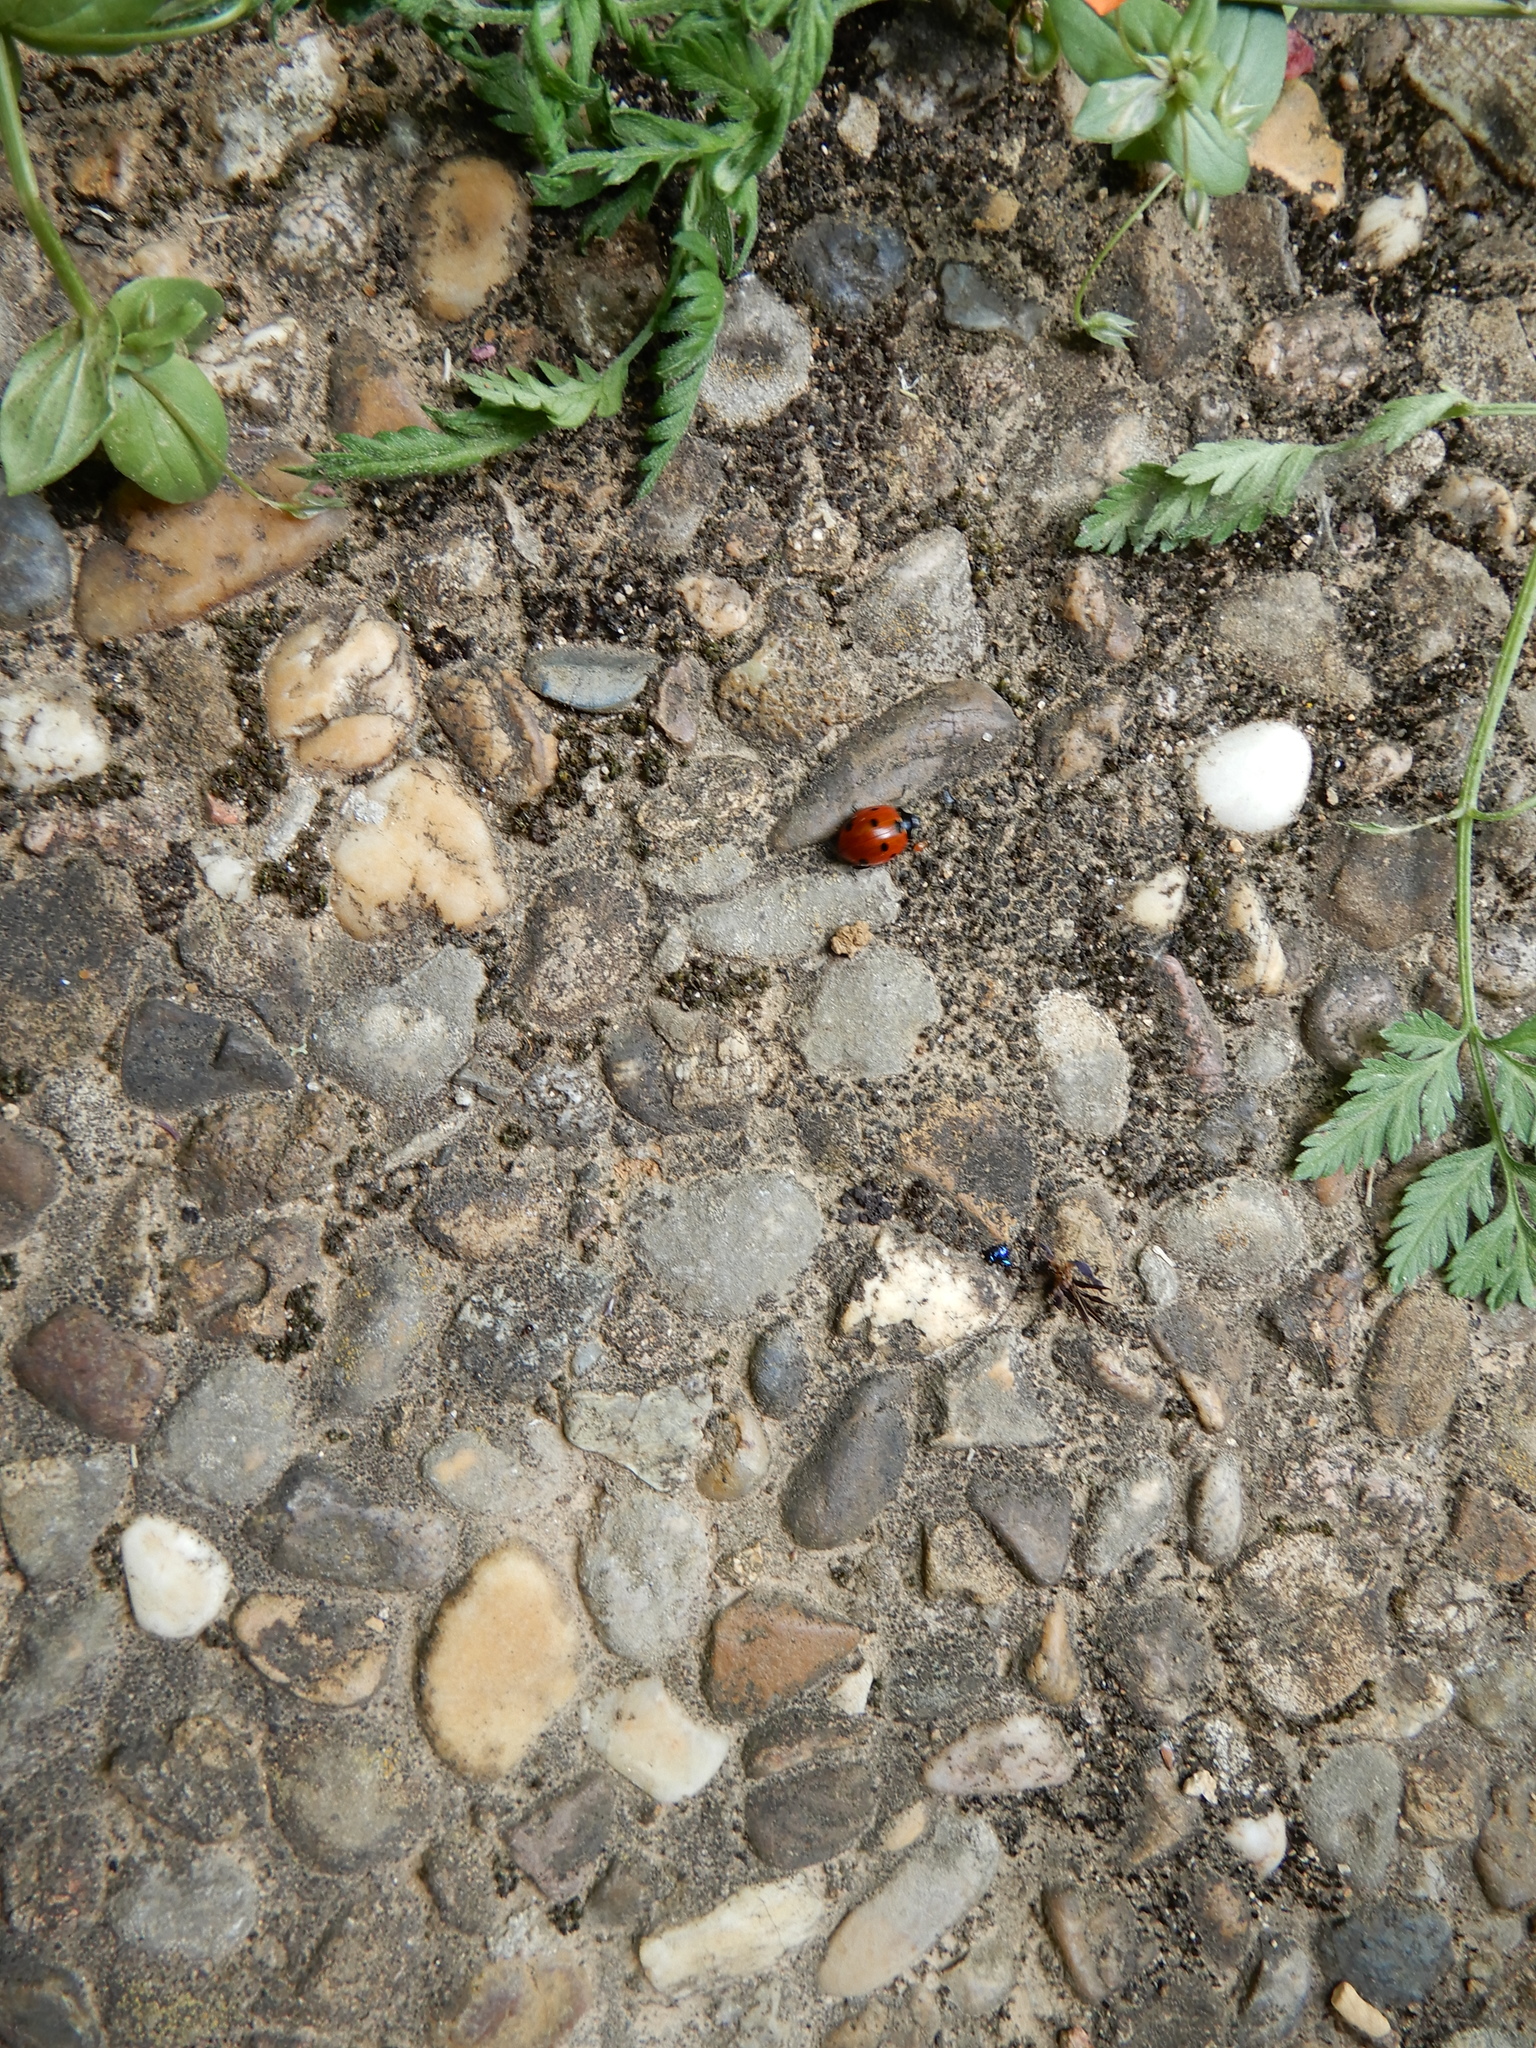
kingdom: Animalia
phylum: Arthropoda
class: Insecta
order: Coleoptera
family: Coccinellidae
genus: Coccinella
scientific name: Coccinella septempunctata
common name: Sevenspotted lady beetle
